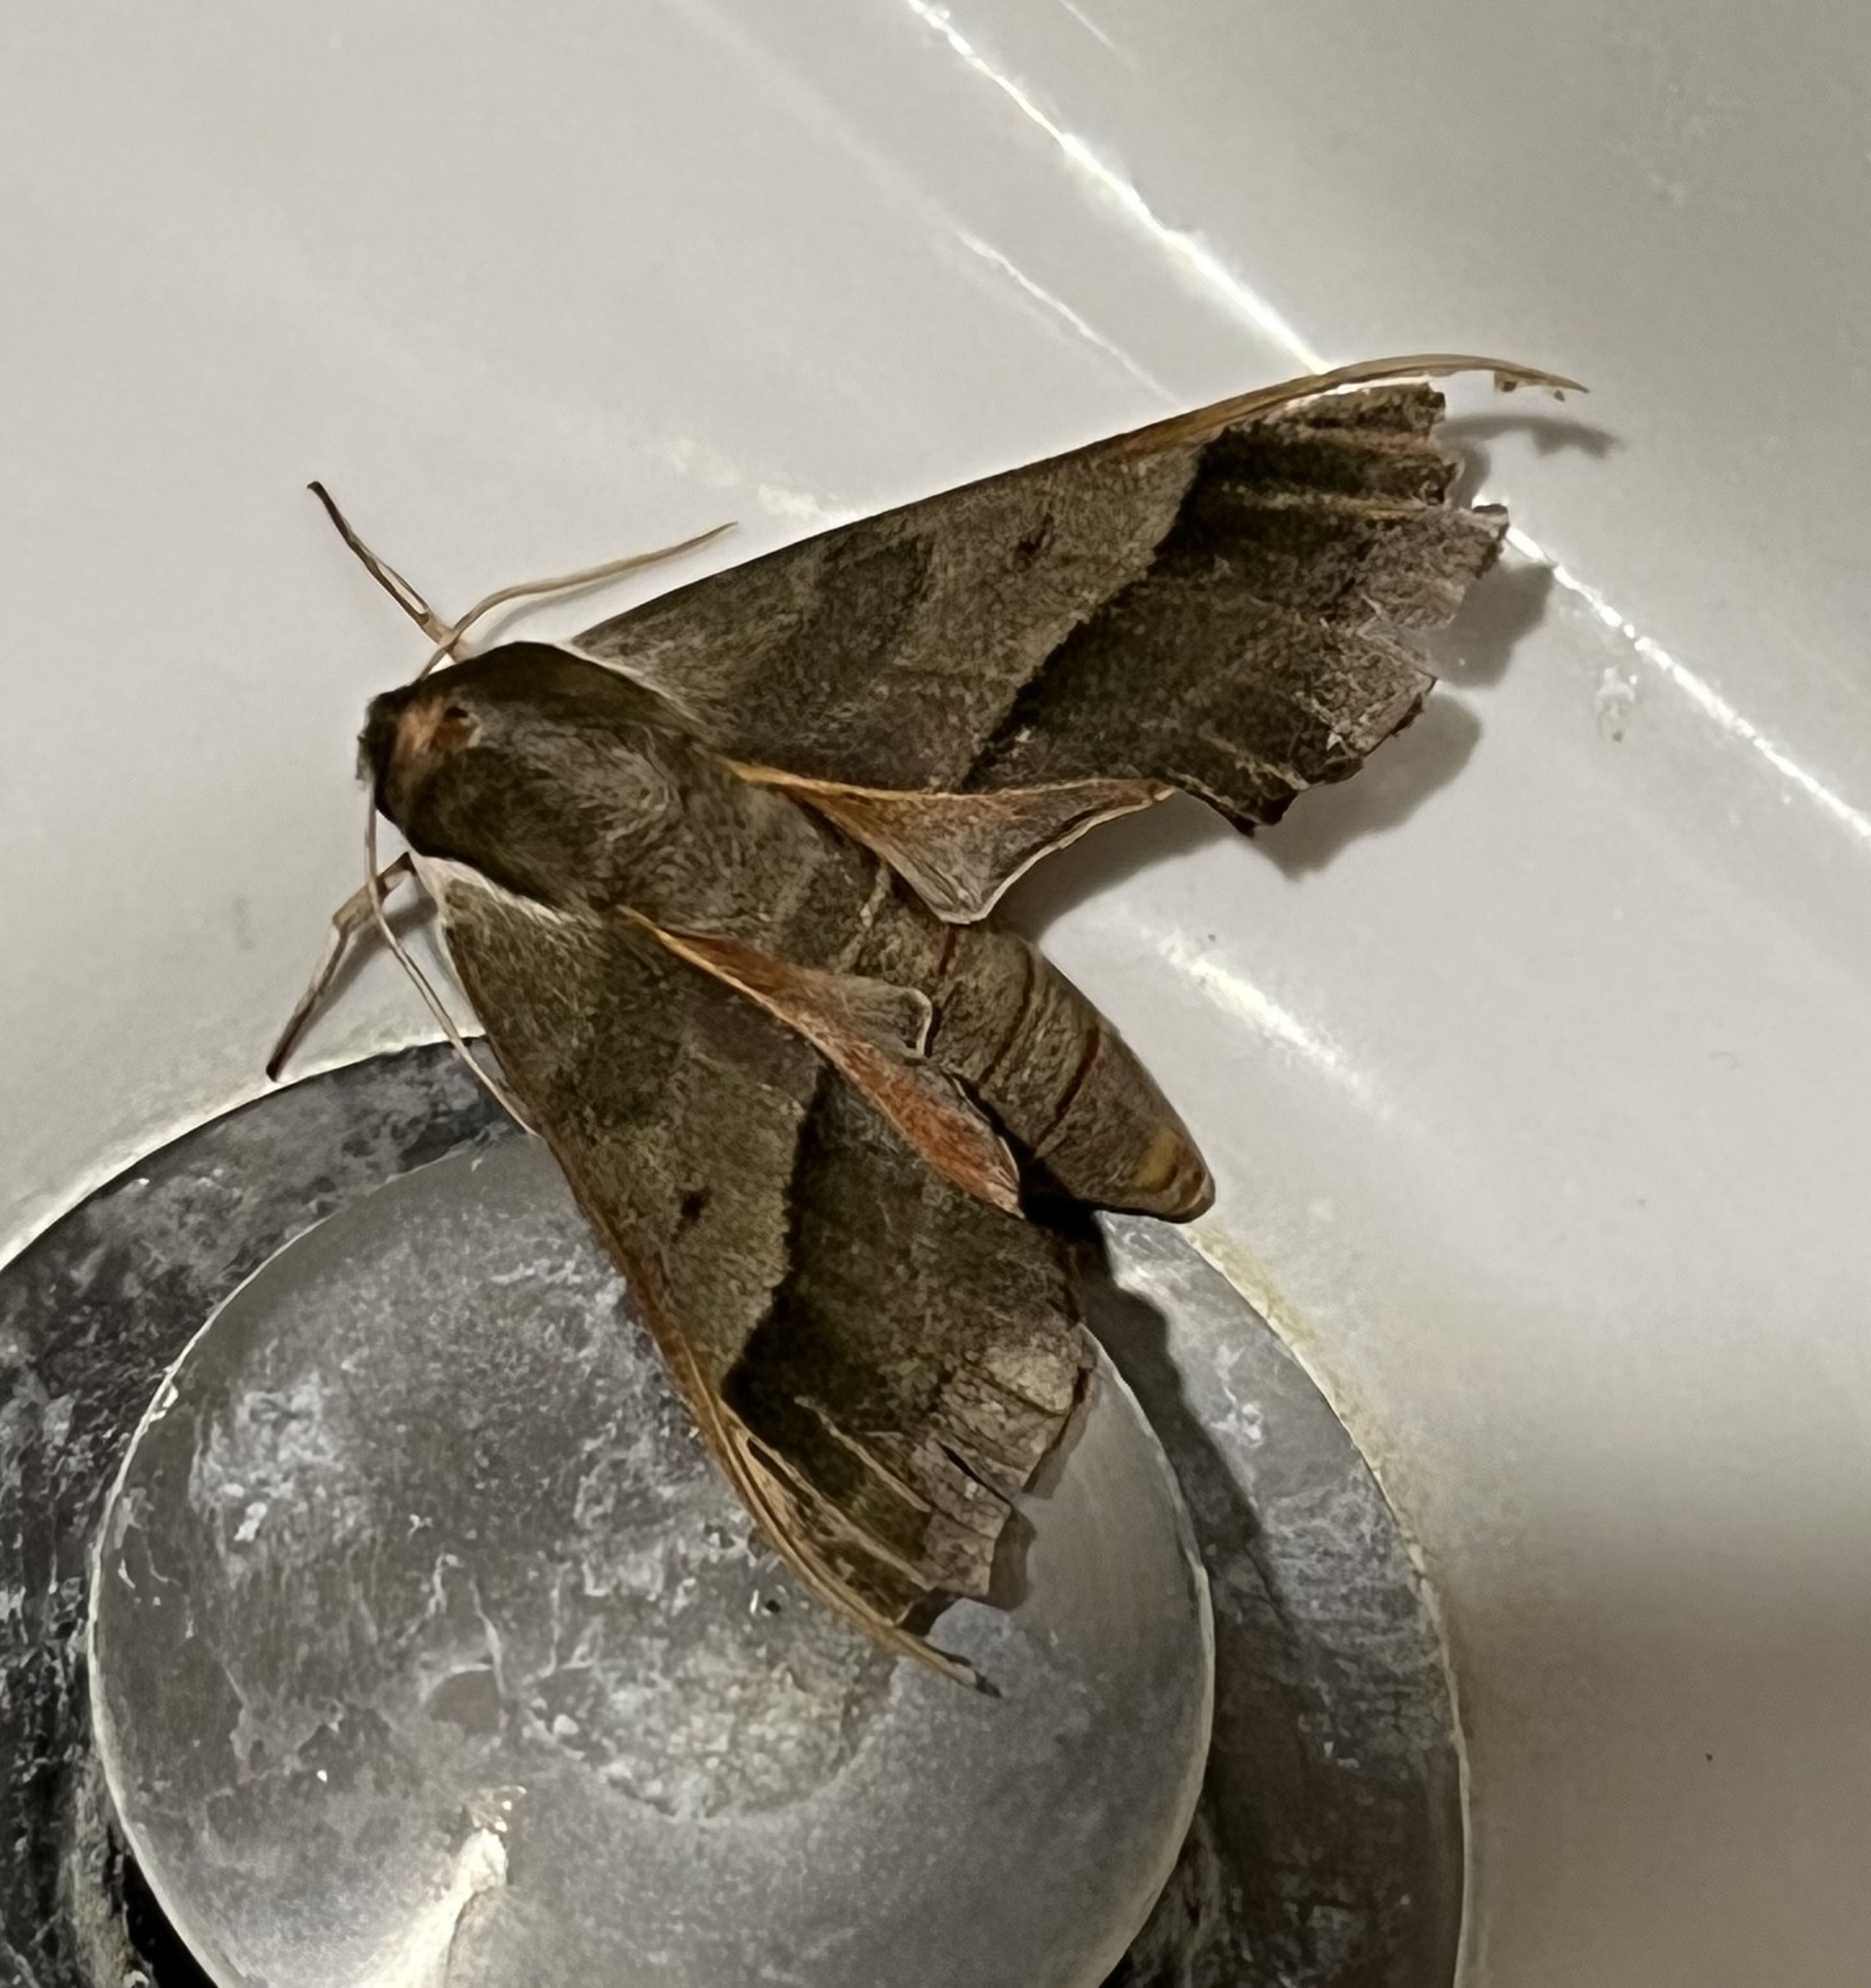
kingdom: Animalia
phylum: Arthropoda
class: Insecta
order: Lepidoptera
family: Sphingidae
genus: Darapsa
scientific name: Darapsa myron
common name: Hog sphinx
